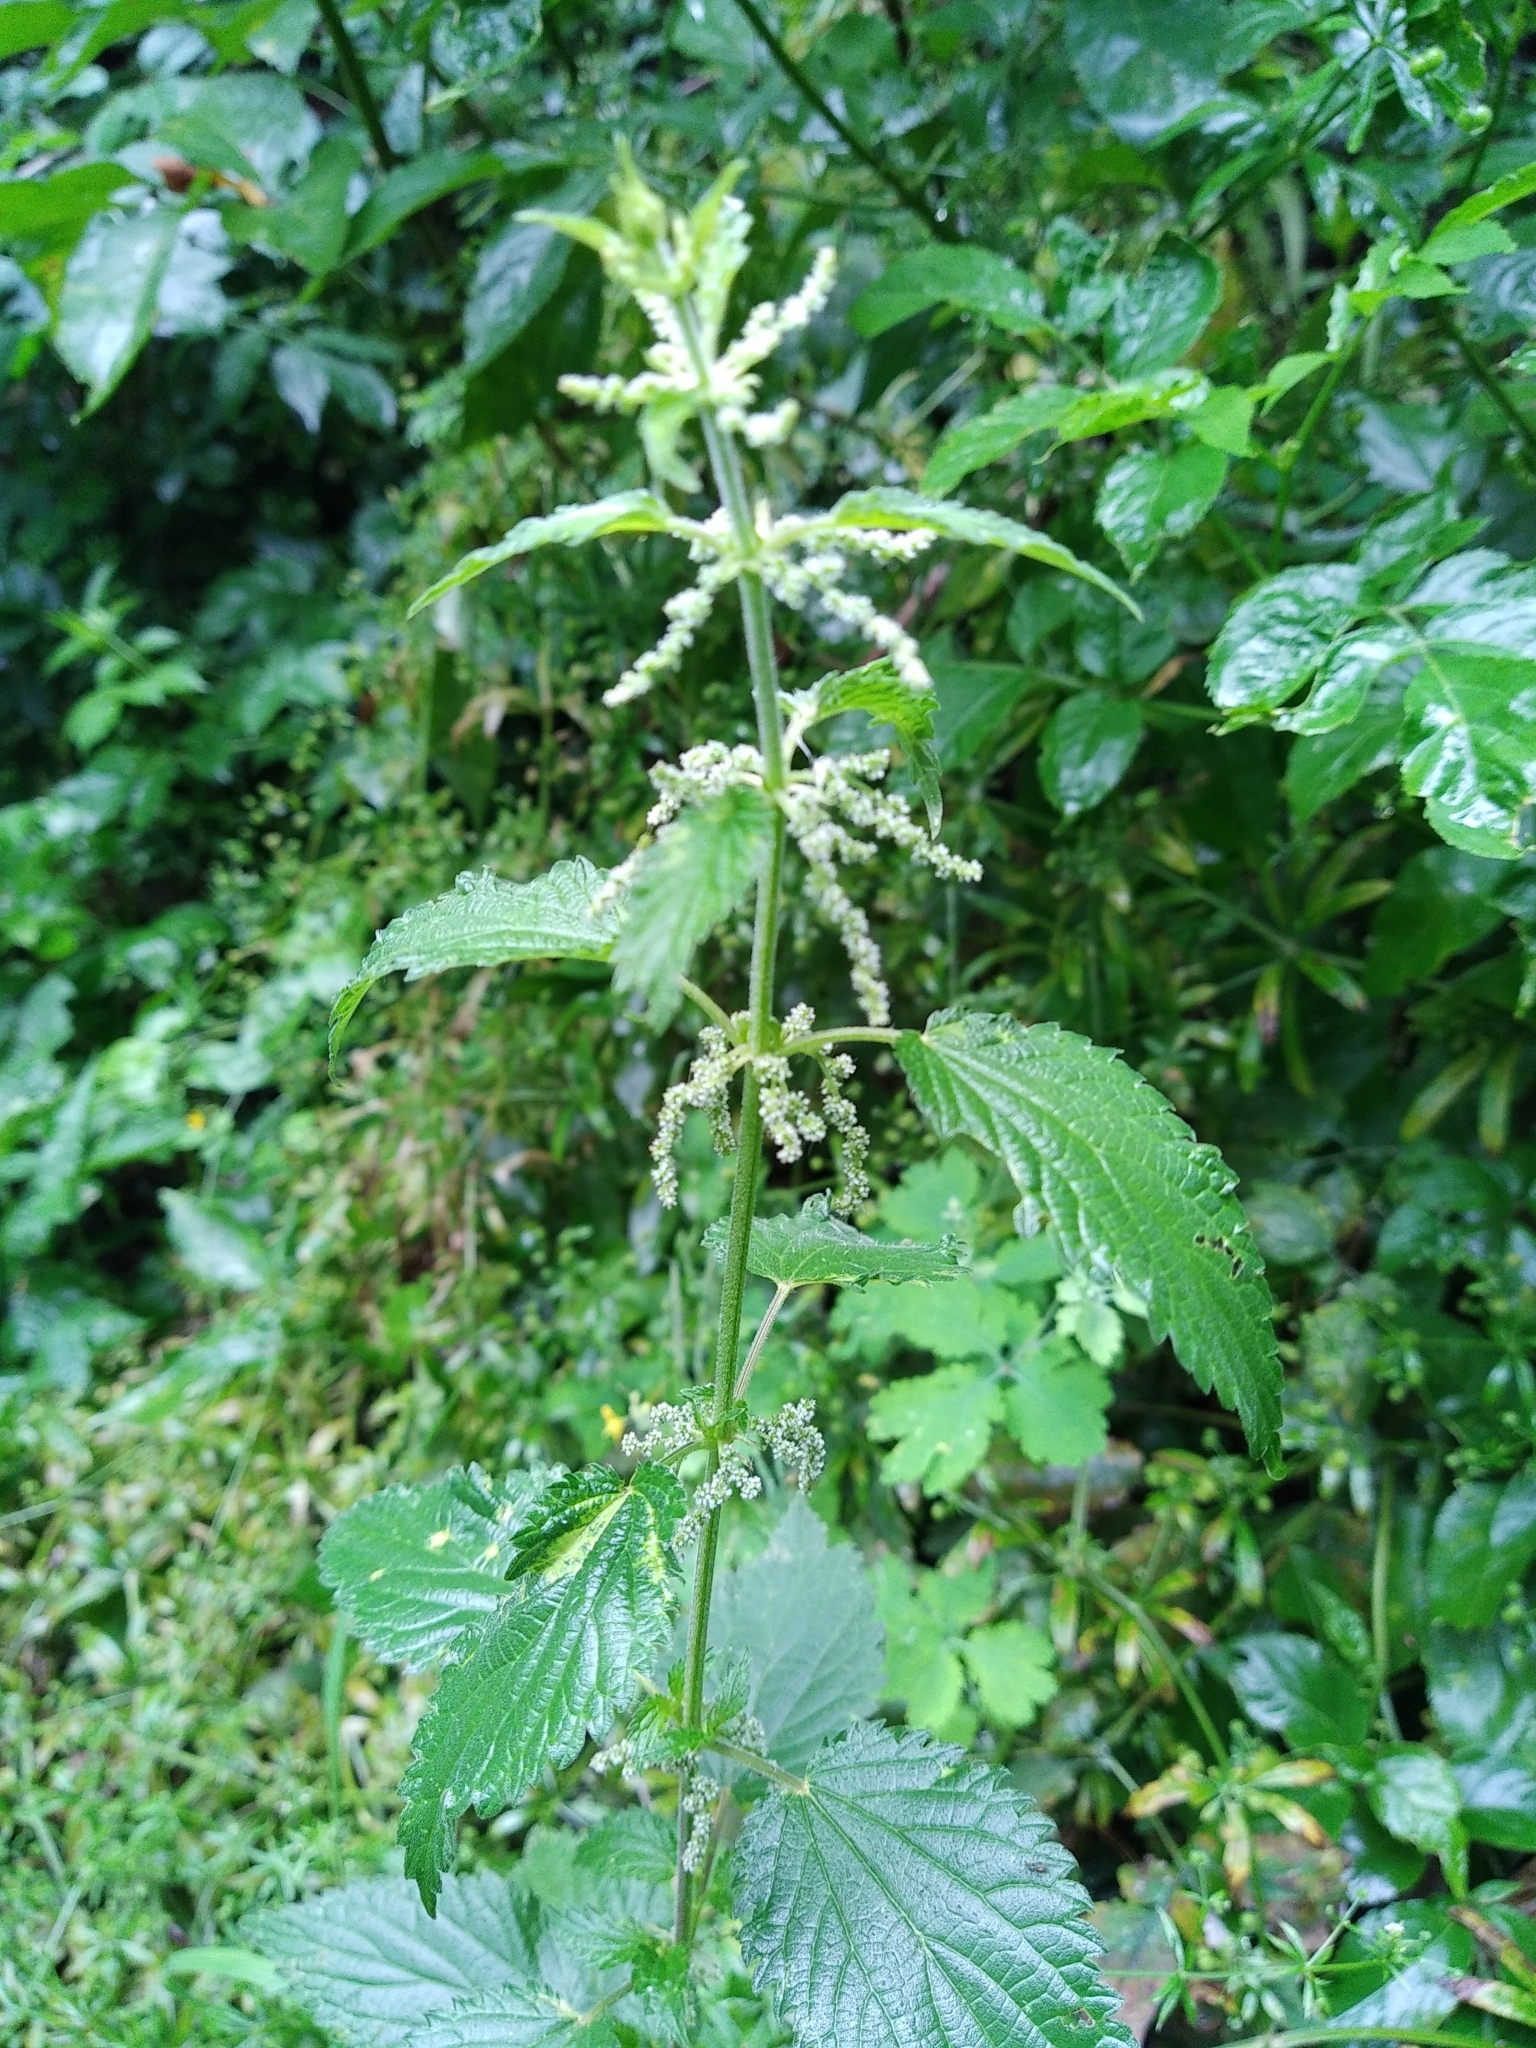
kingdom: Plantae
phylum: Tracheophyta
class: Magnoliopsida
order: Rosales
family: Urticaceae
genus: Urtica
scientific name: Urtica dioica
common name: Common nettle
